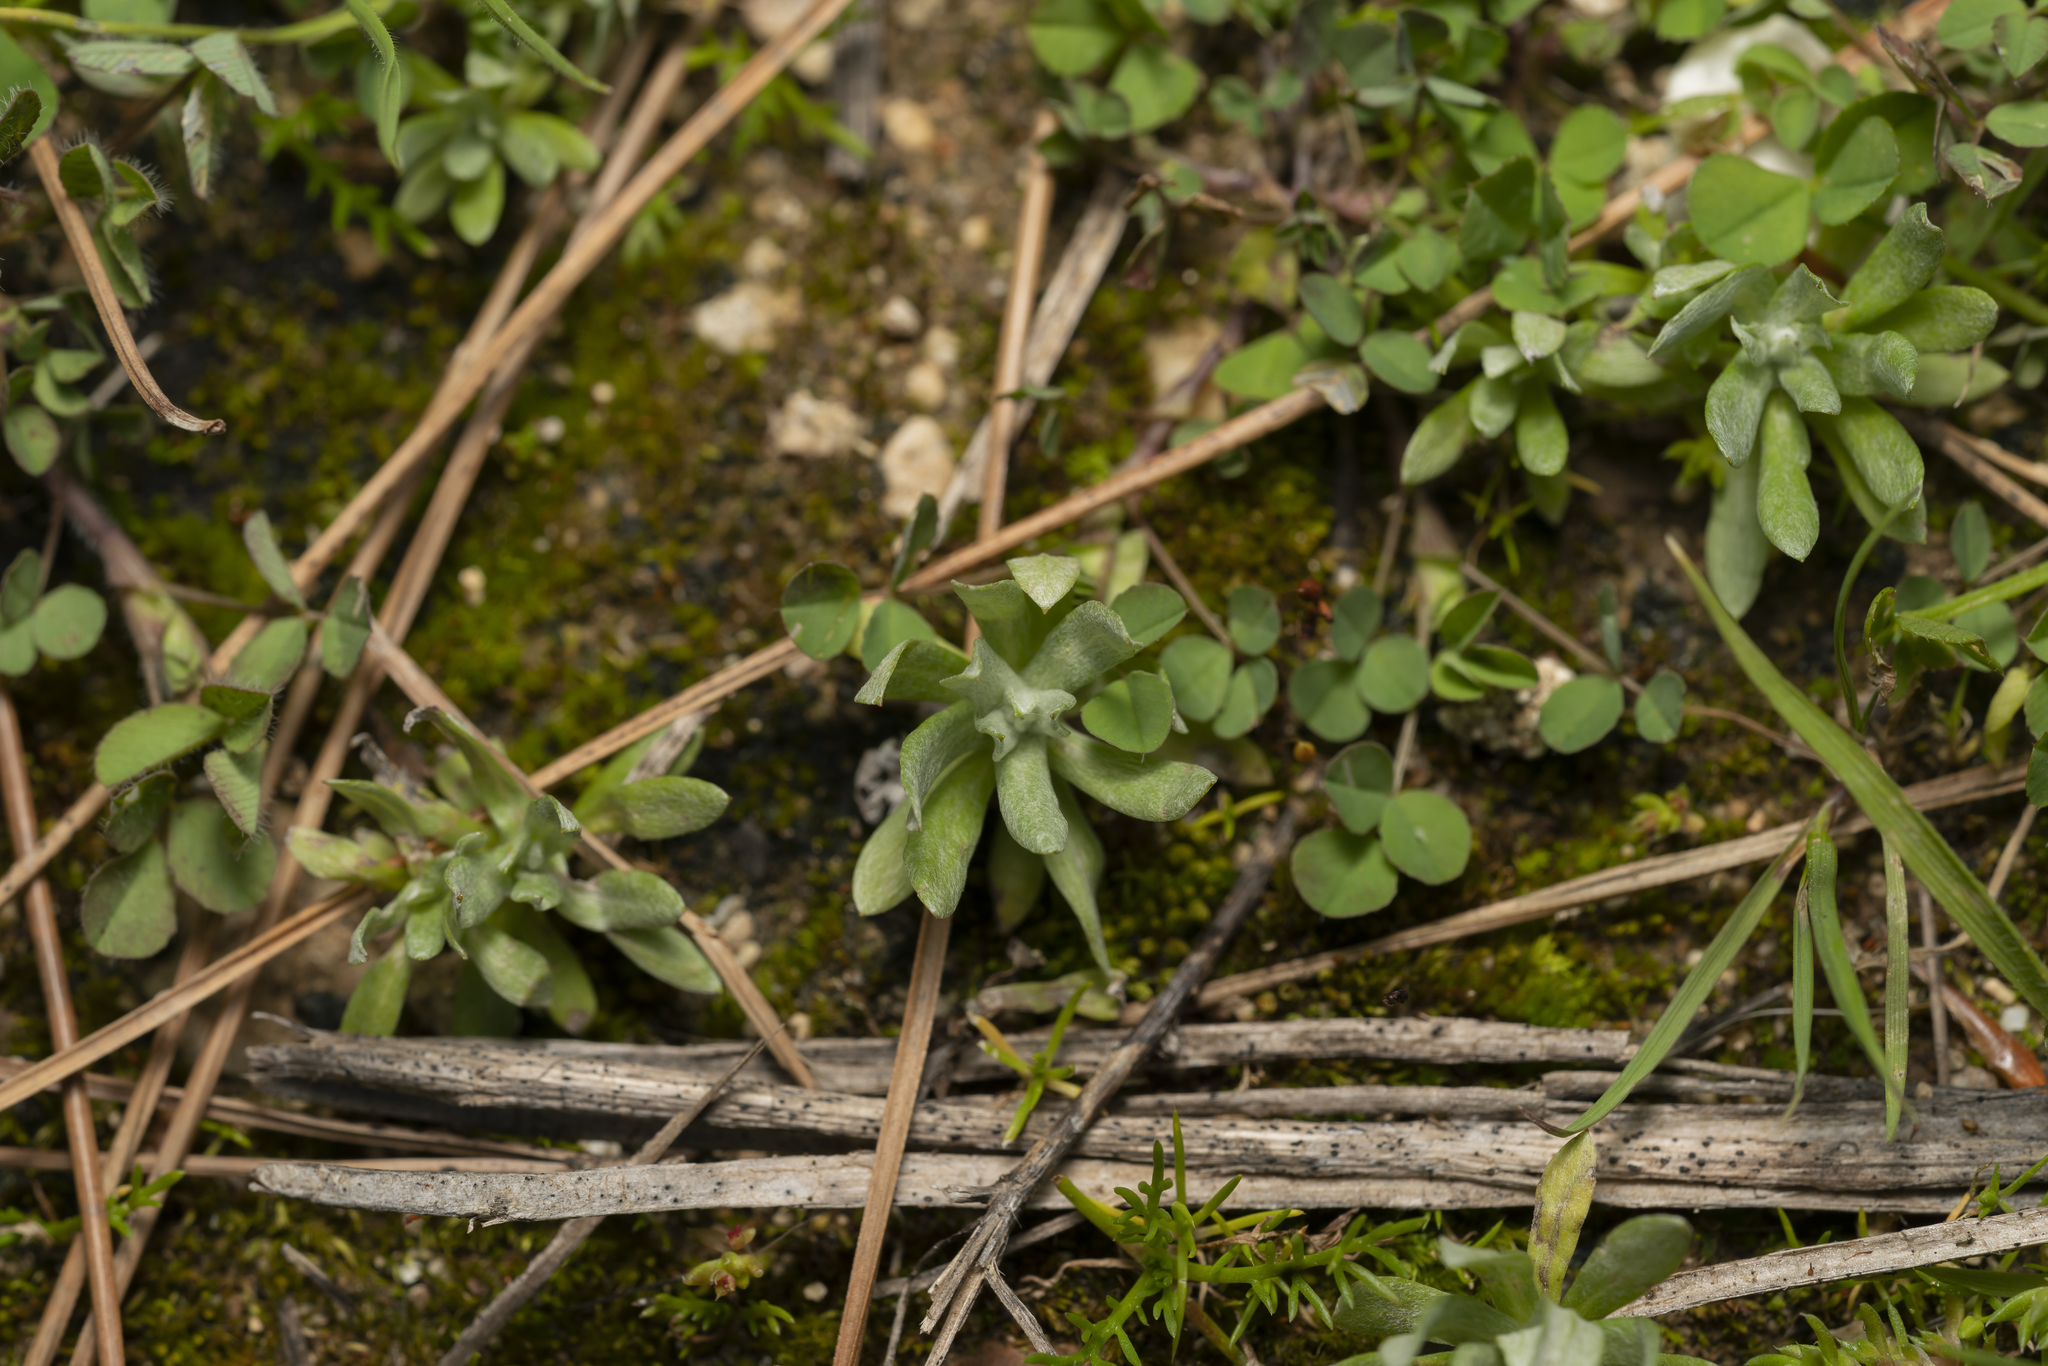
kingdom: Plantae
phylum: Tracheophyta
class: Magnoliopsida
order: Asterales
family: Asteraceae
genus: Filago
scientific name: Filago pygmaea
